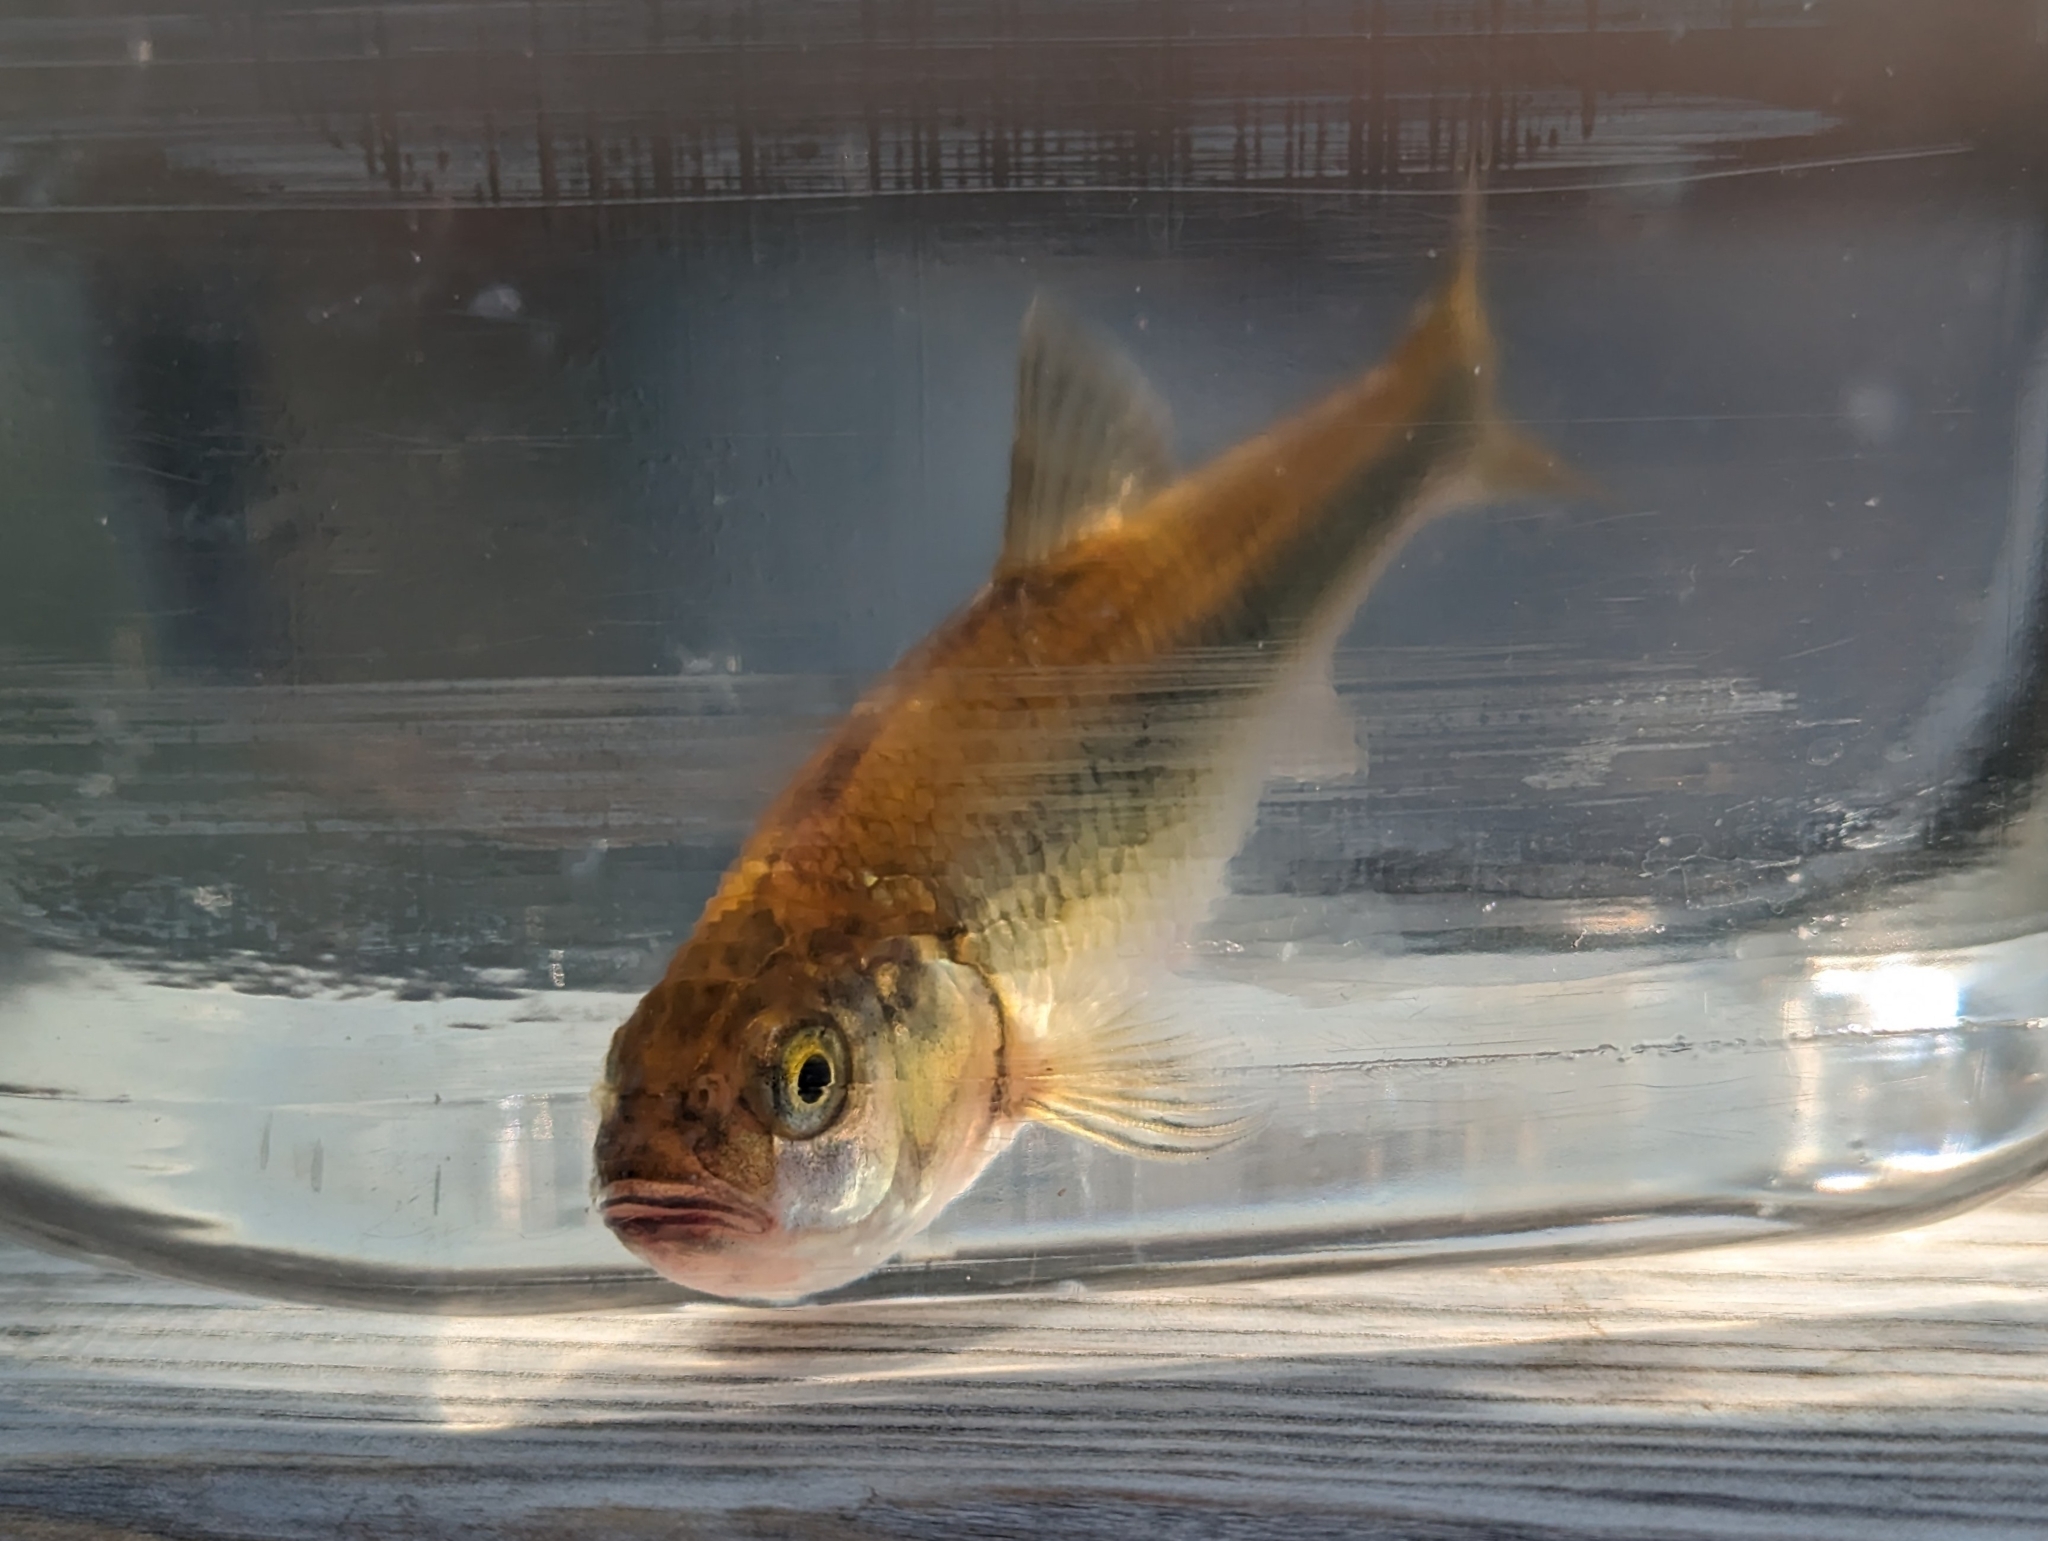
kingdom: Animalia
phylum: Chordata
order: Cypriniformes
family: Cyprinidae
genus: Luxilus
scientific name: Luxilus cornutus
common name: Common shiner
